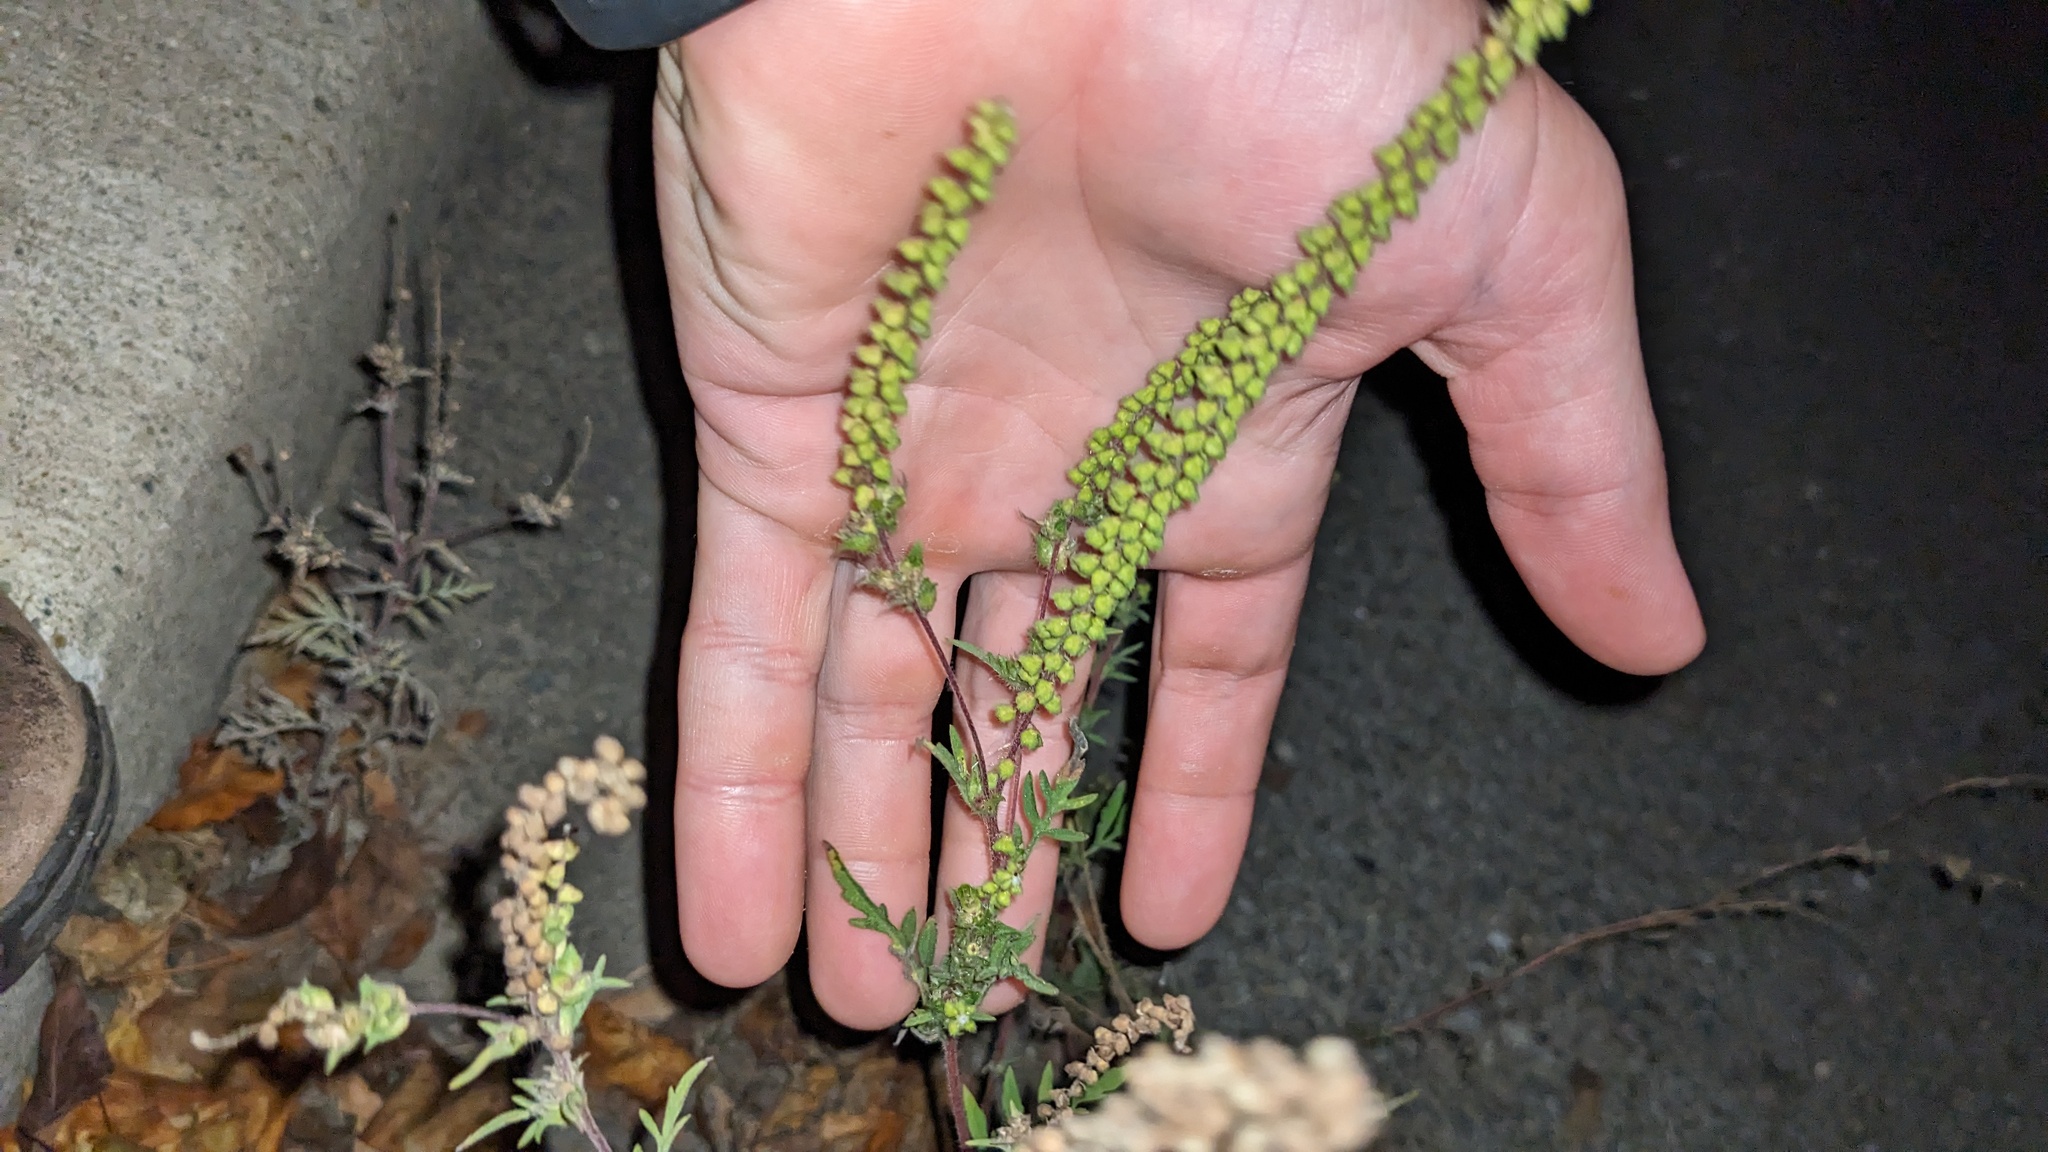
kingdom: Plantae
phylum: Tracheophyta
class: Magnoliopsida
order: Asterales
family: Asteraceae
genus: Ambrosia
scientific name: Ambrosia artemisiifolia
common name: Annual ragweed
